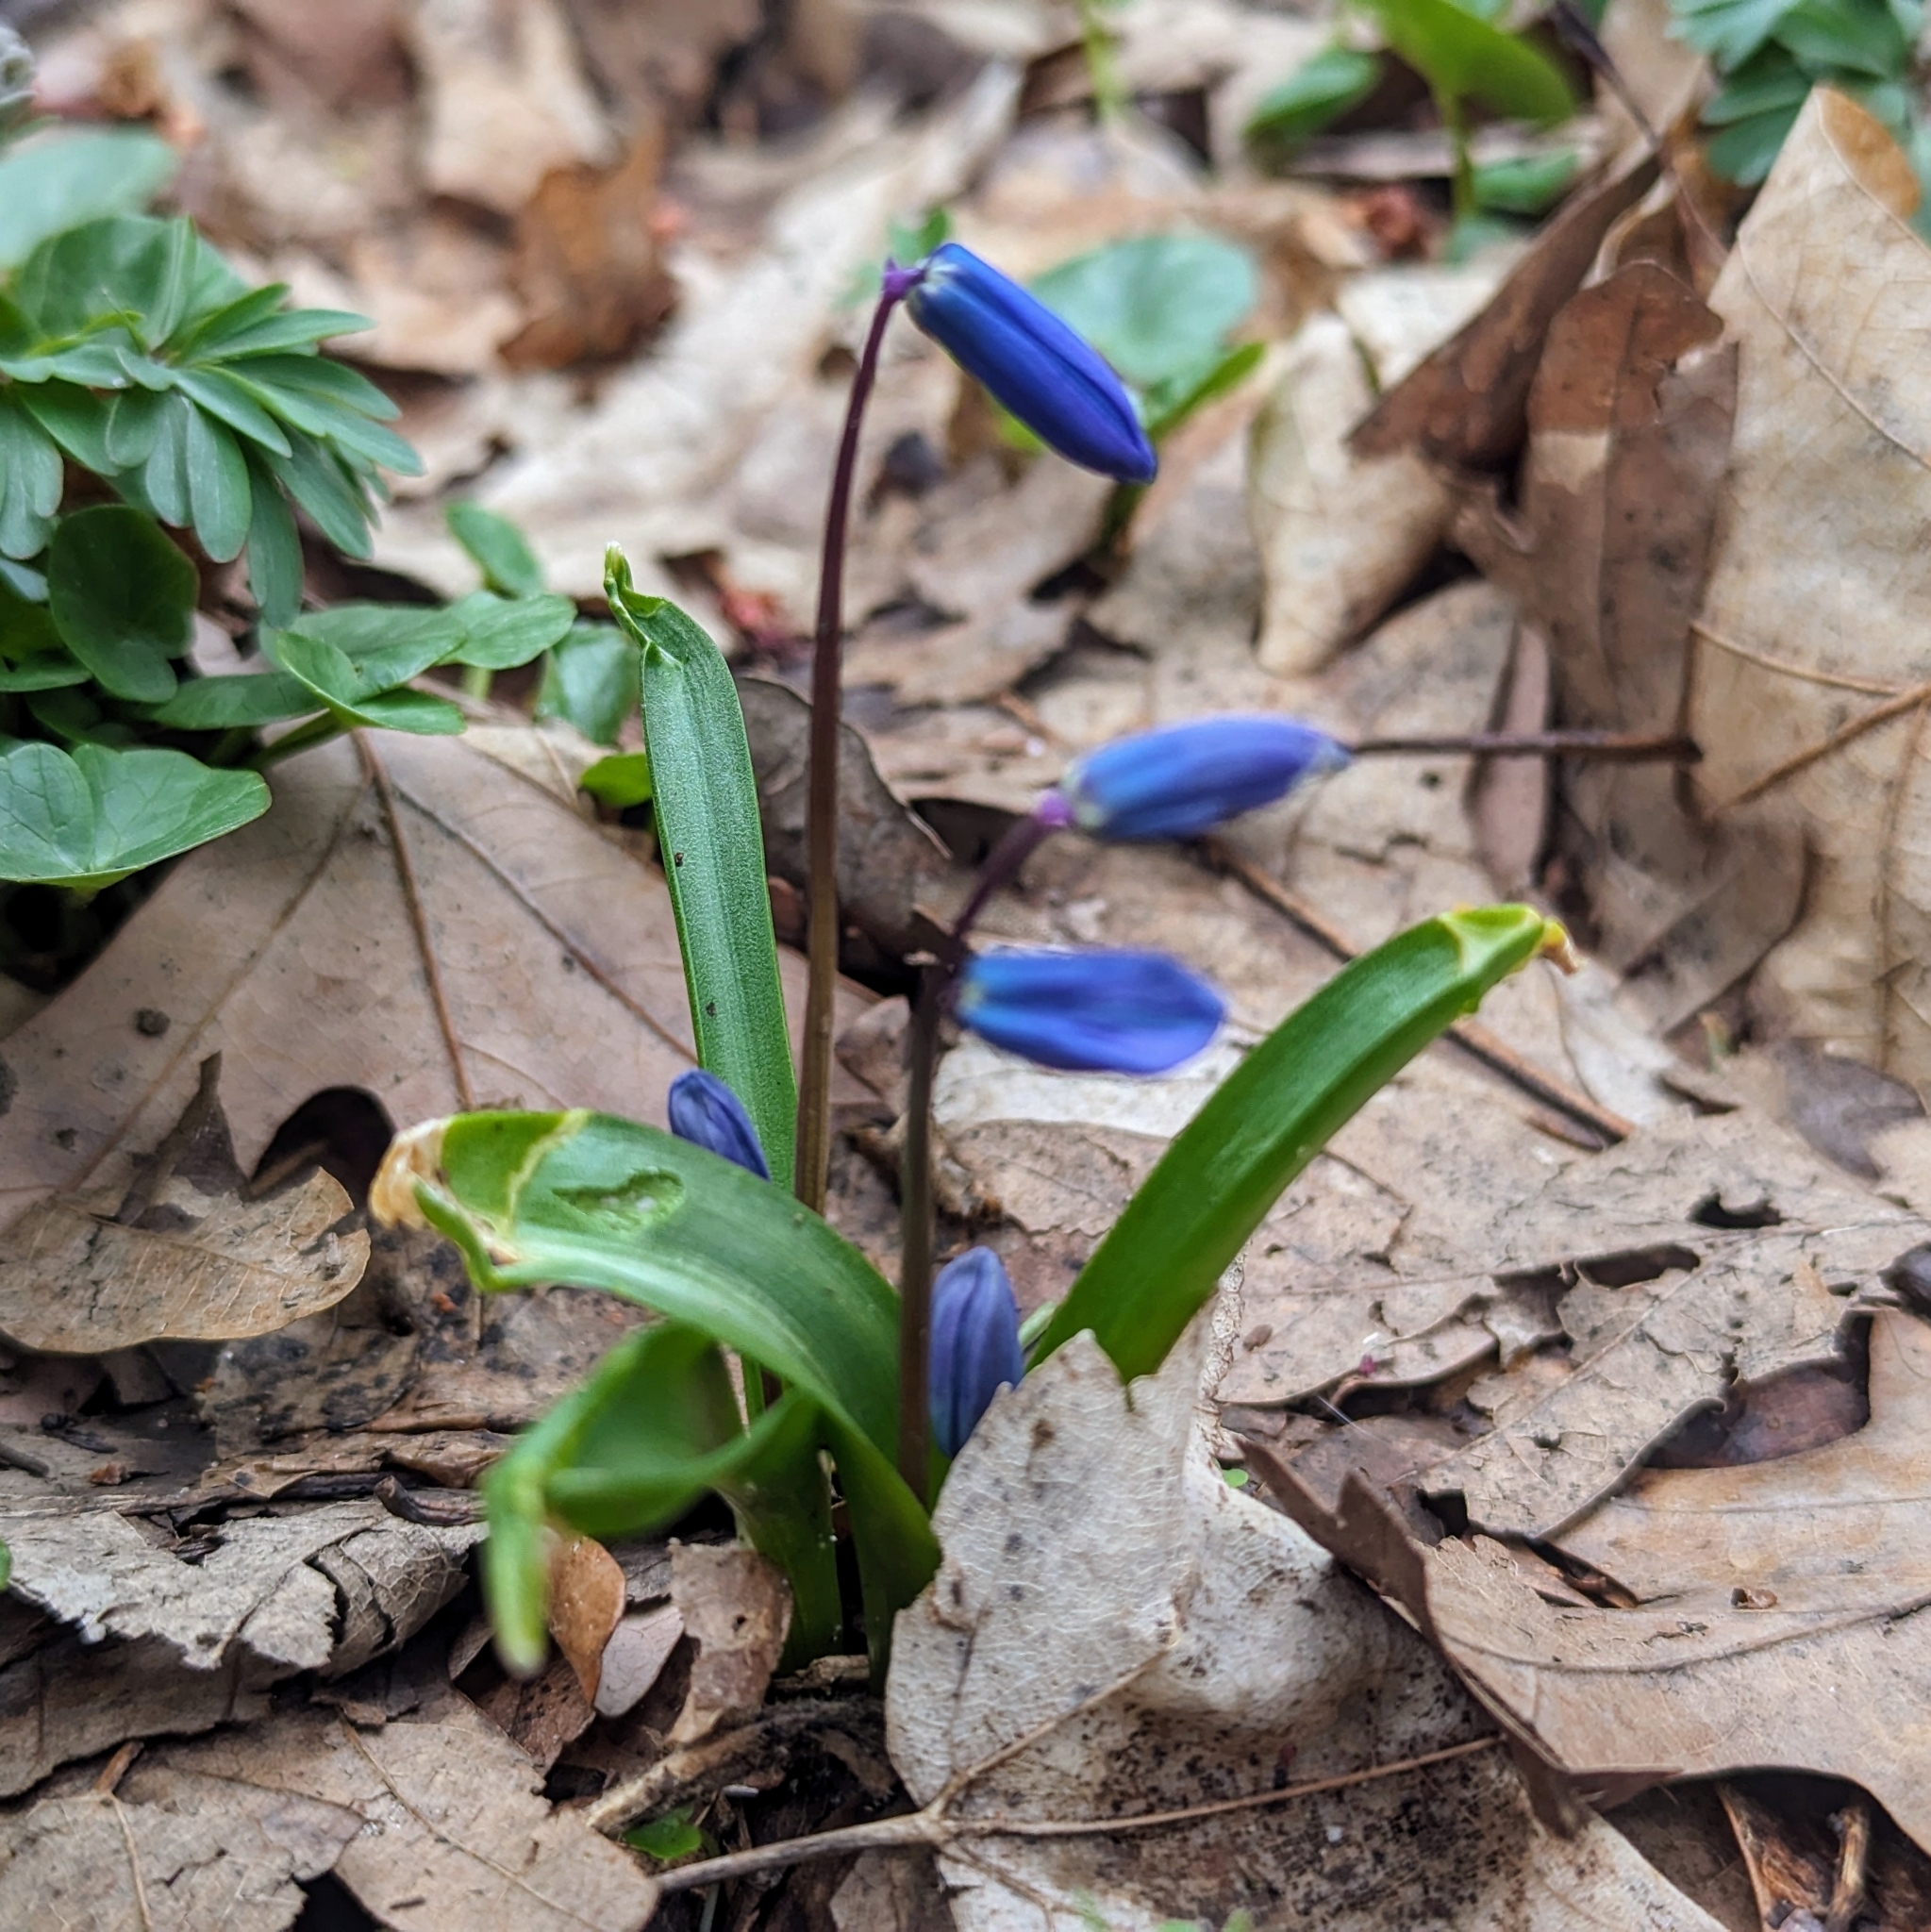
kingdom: Plantae
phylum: Tracheophyta
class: Liliopsida
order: Asparagales
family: Asparagaceae
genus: Scilla
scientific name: Scilla siberica
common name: Siberian squill
